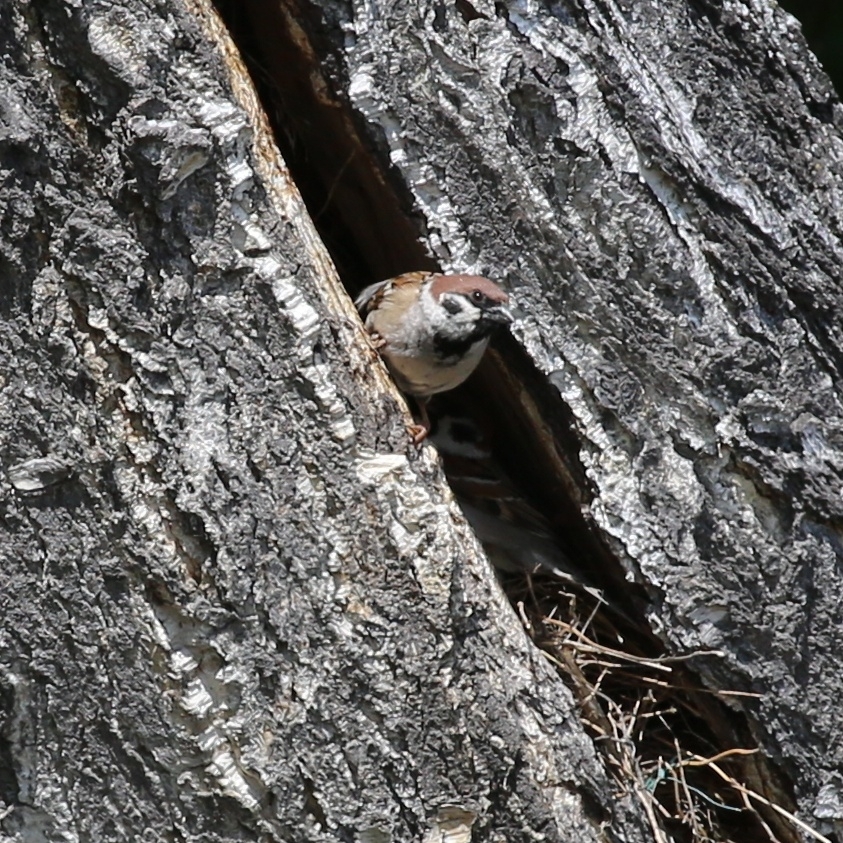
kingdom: Animalia
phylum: Chordata
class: Aves
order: Passeriformes
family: Passeridae
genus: Passer
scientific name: Passer montanus
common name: Eurasian tree sparrow
